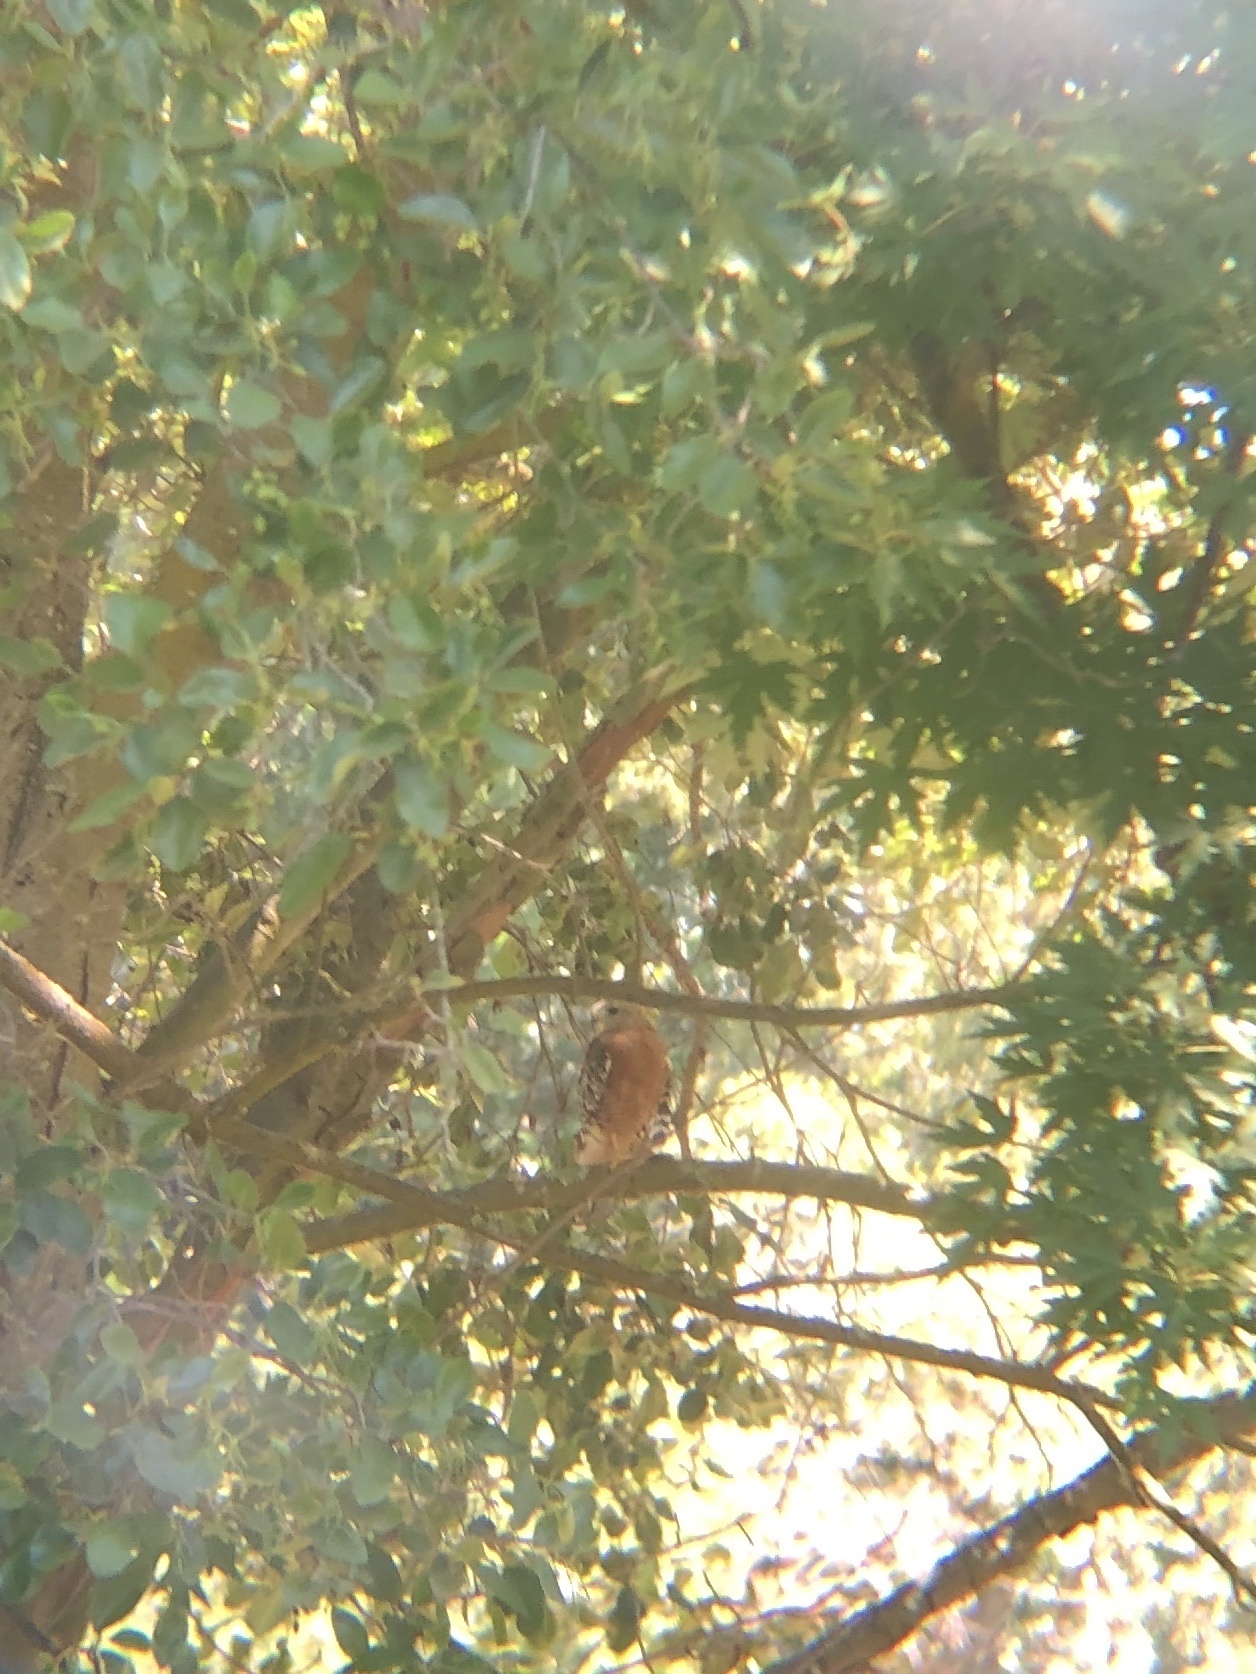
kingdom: Animalia
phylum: Chordata
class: Aves
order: Accipitriformes
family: Accipitridae
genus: Buteo
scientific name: Buteo lineatus
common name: Red-shouldered hawk
